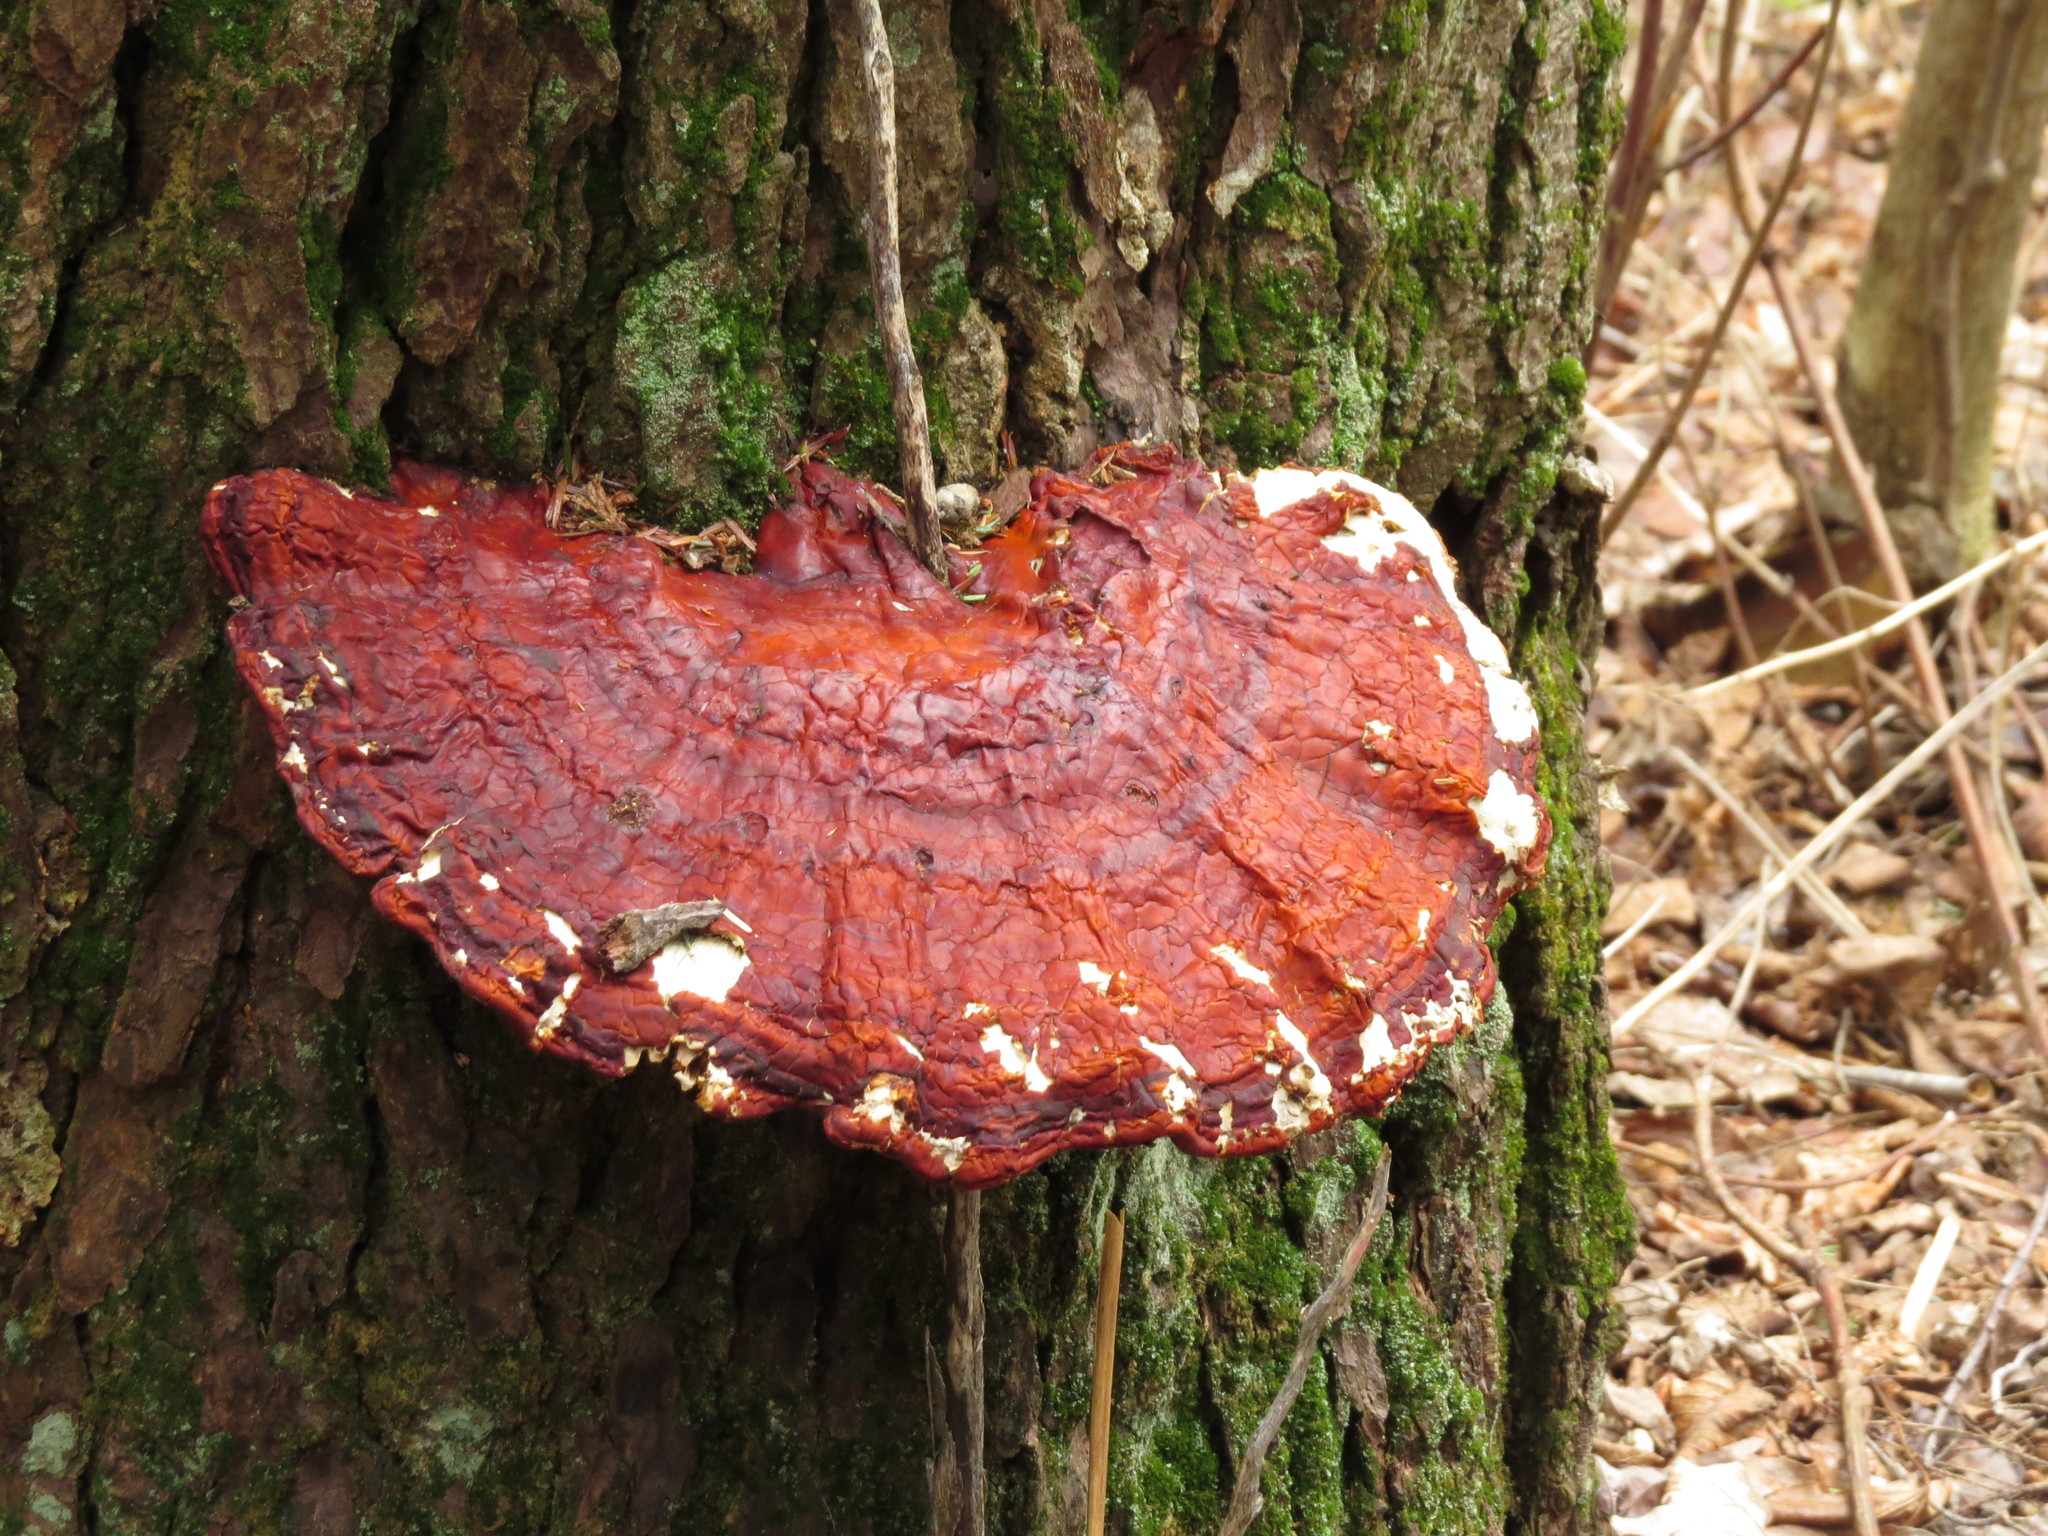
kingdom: Fungi
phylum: Basidiomycota
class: Agaricomycetes
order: Polyporales
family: Polyporaceae
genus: Ganoderma
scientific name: Ganoderma tsugae
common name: Hemlock varnish shelf
